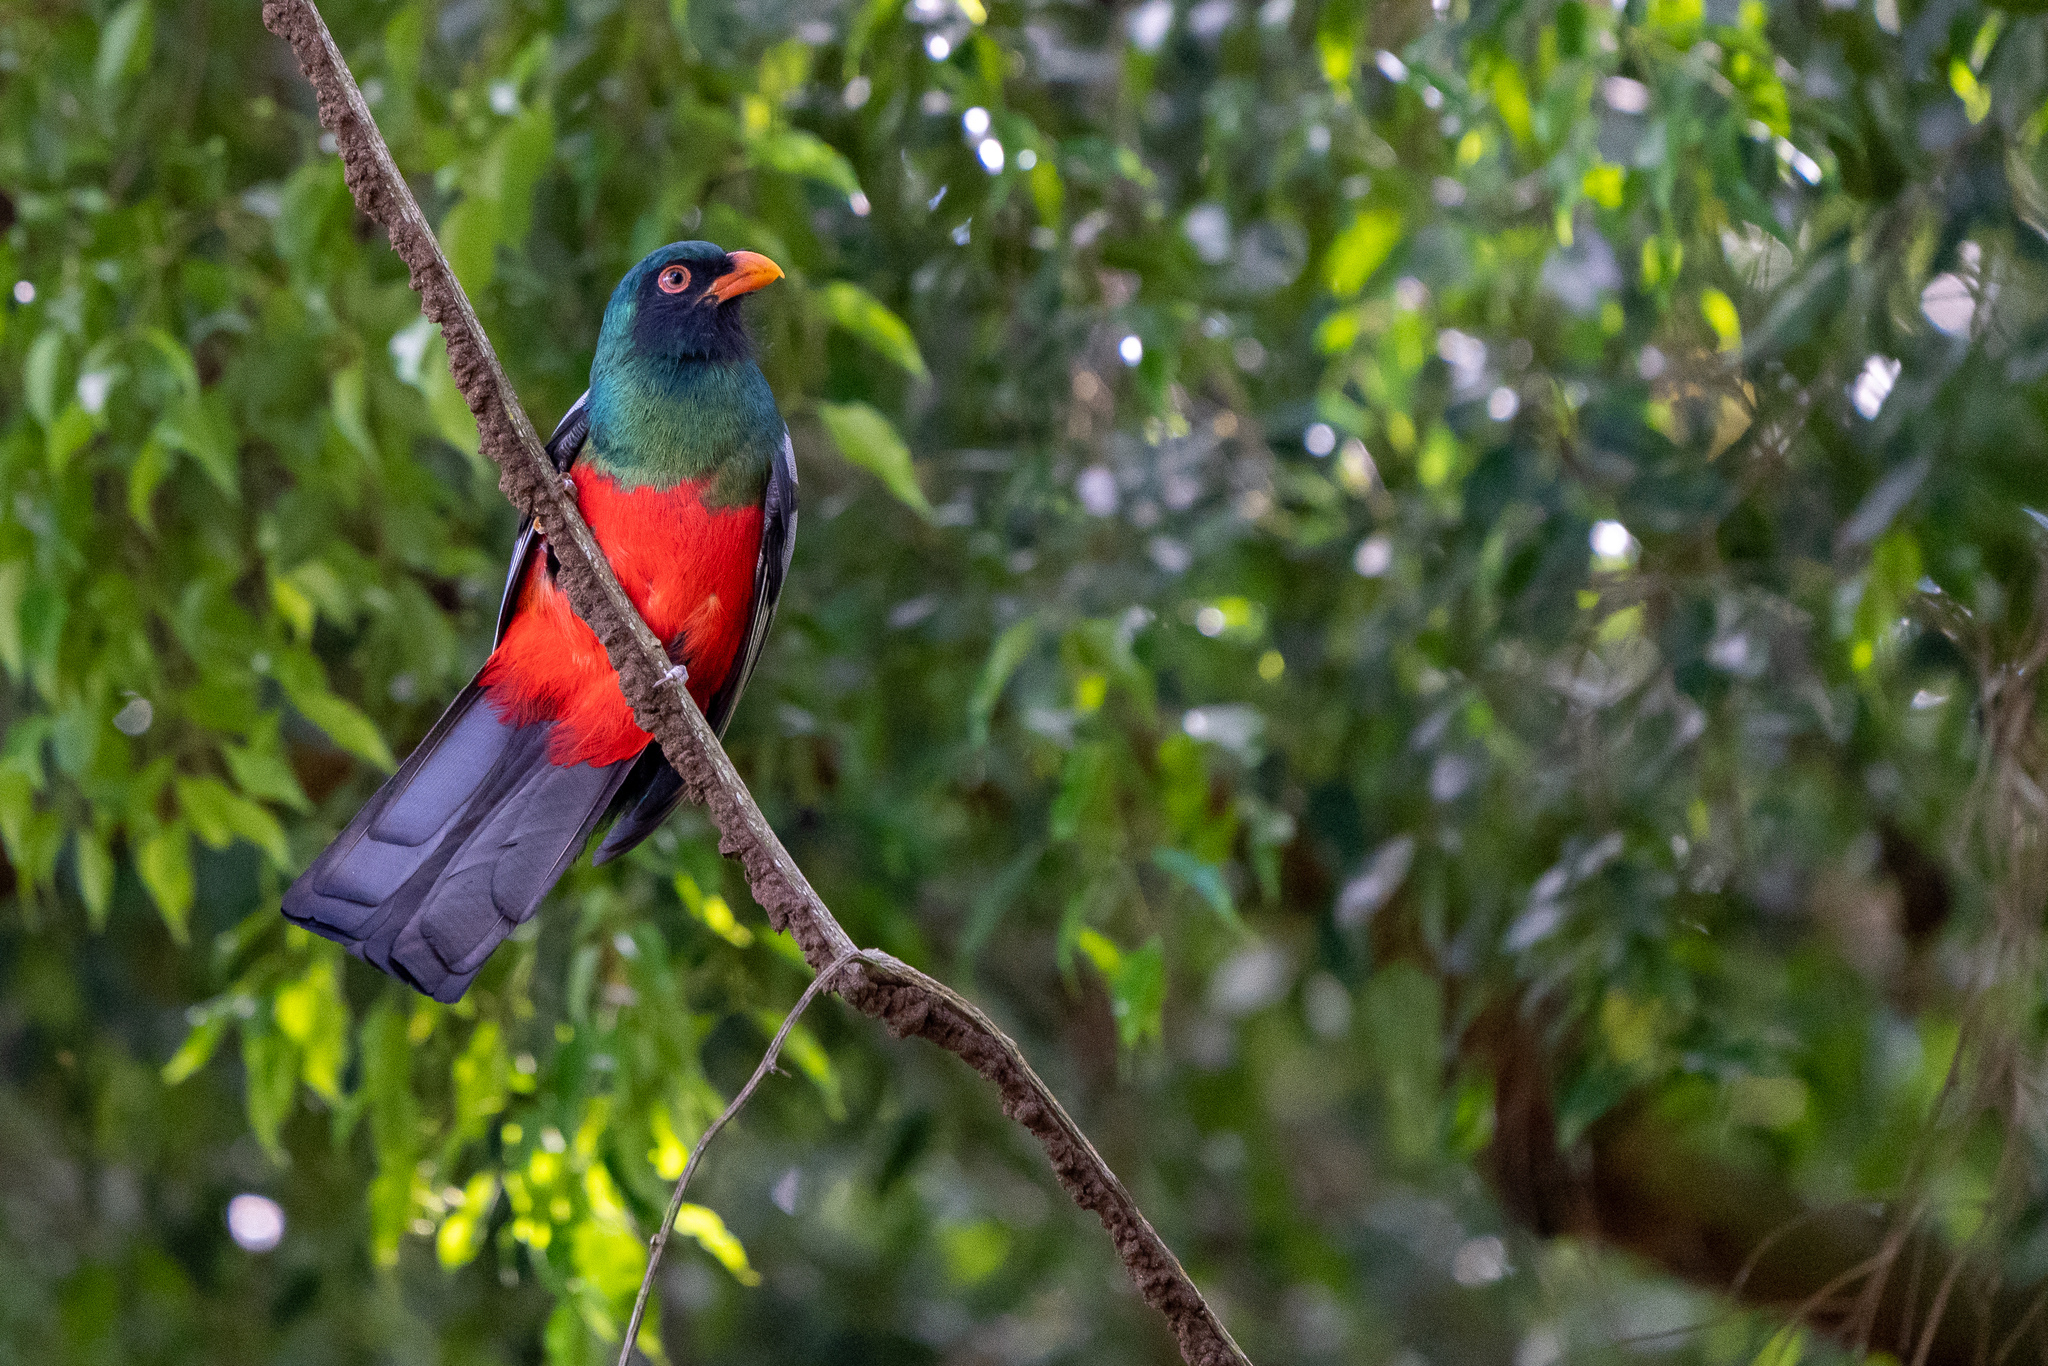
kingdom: Animalia
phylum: Chordata
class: Aves
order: Trogoniformes
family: Trogonidae
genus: Trogon
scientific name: Trogon massena
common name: Slaty-tailed trogon
